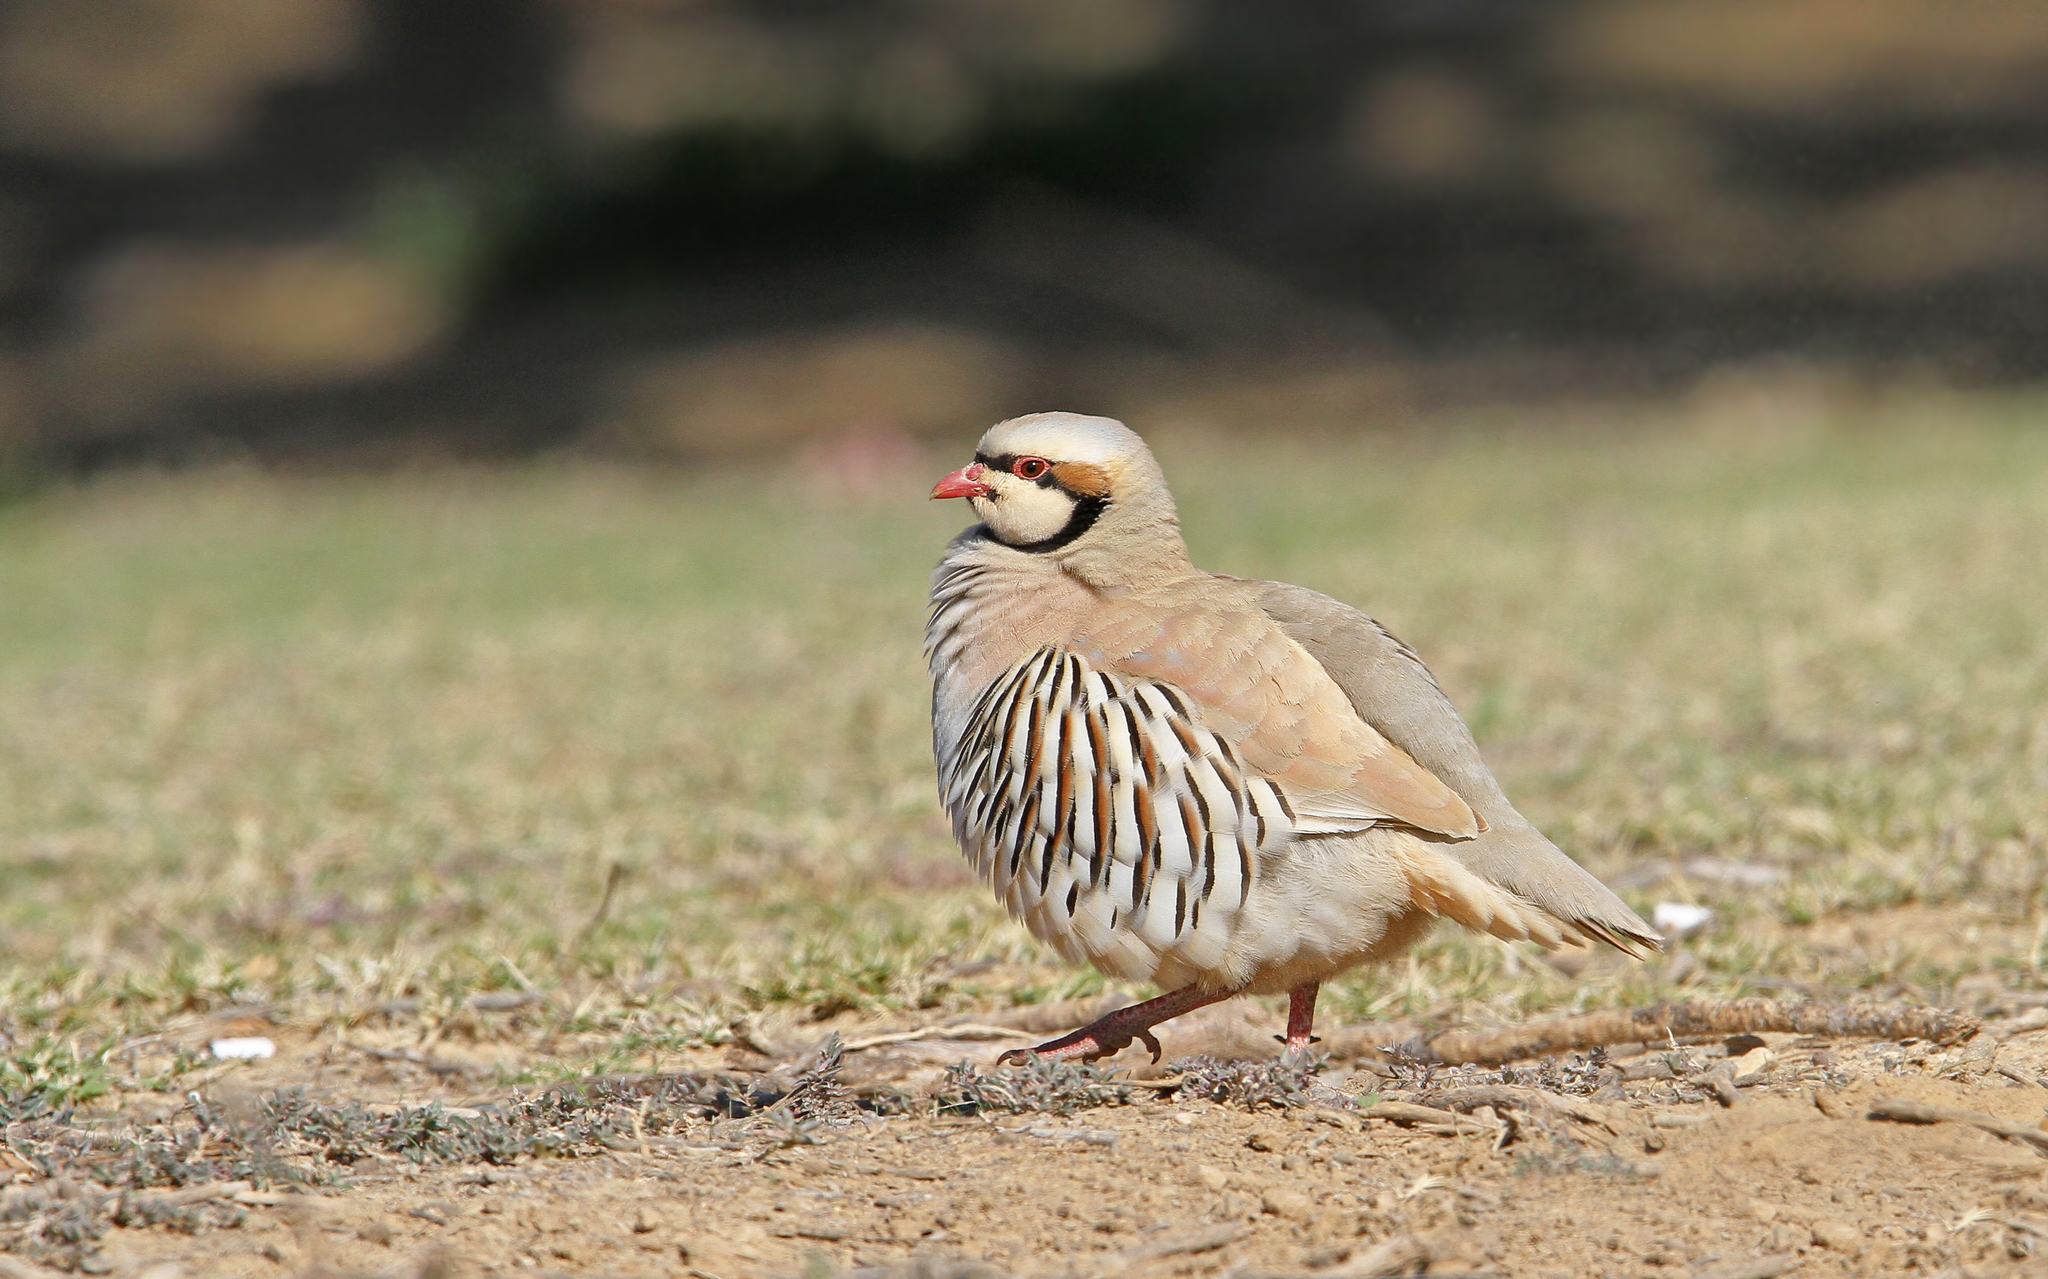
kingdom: Animalia
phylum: Chordata
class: Aves
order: Galliformes
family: Phasianidae
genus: Alectoris
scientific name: Alectoris chukar
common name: Chukar
